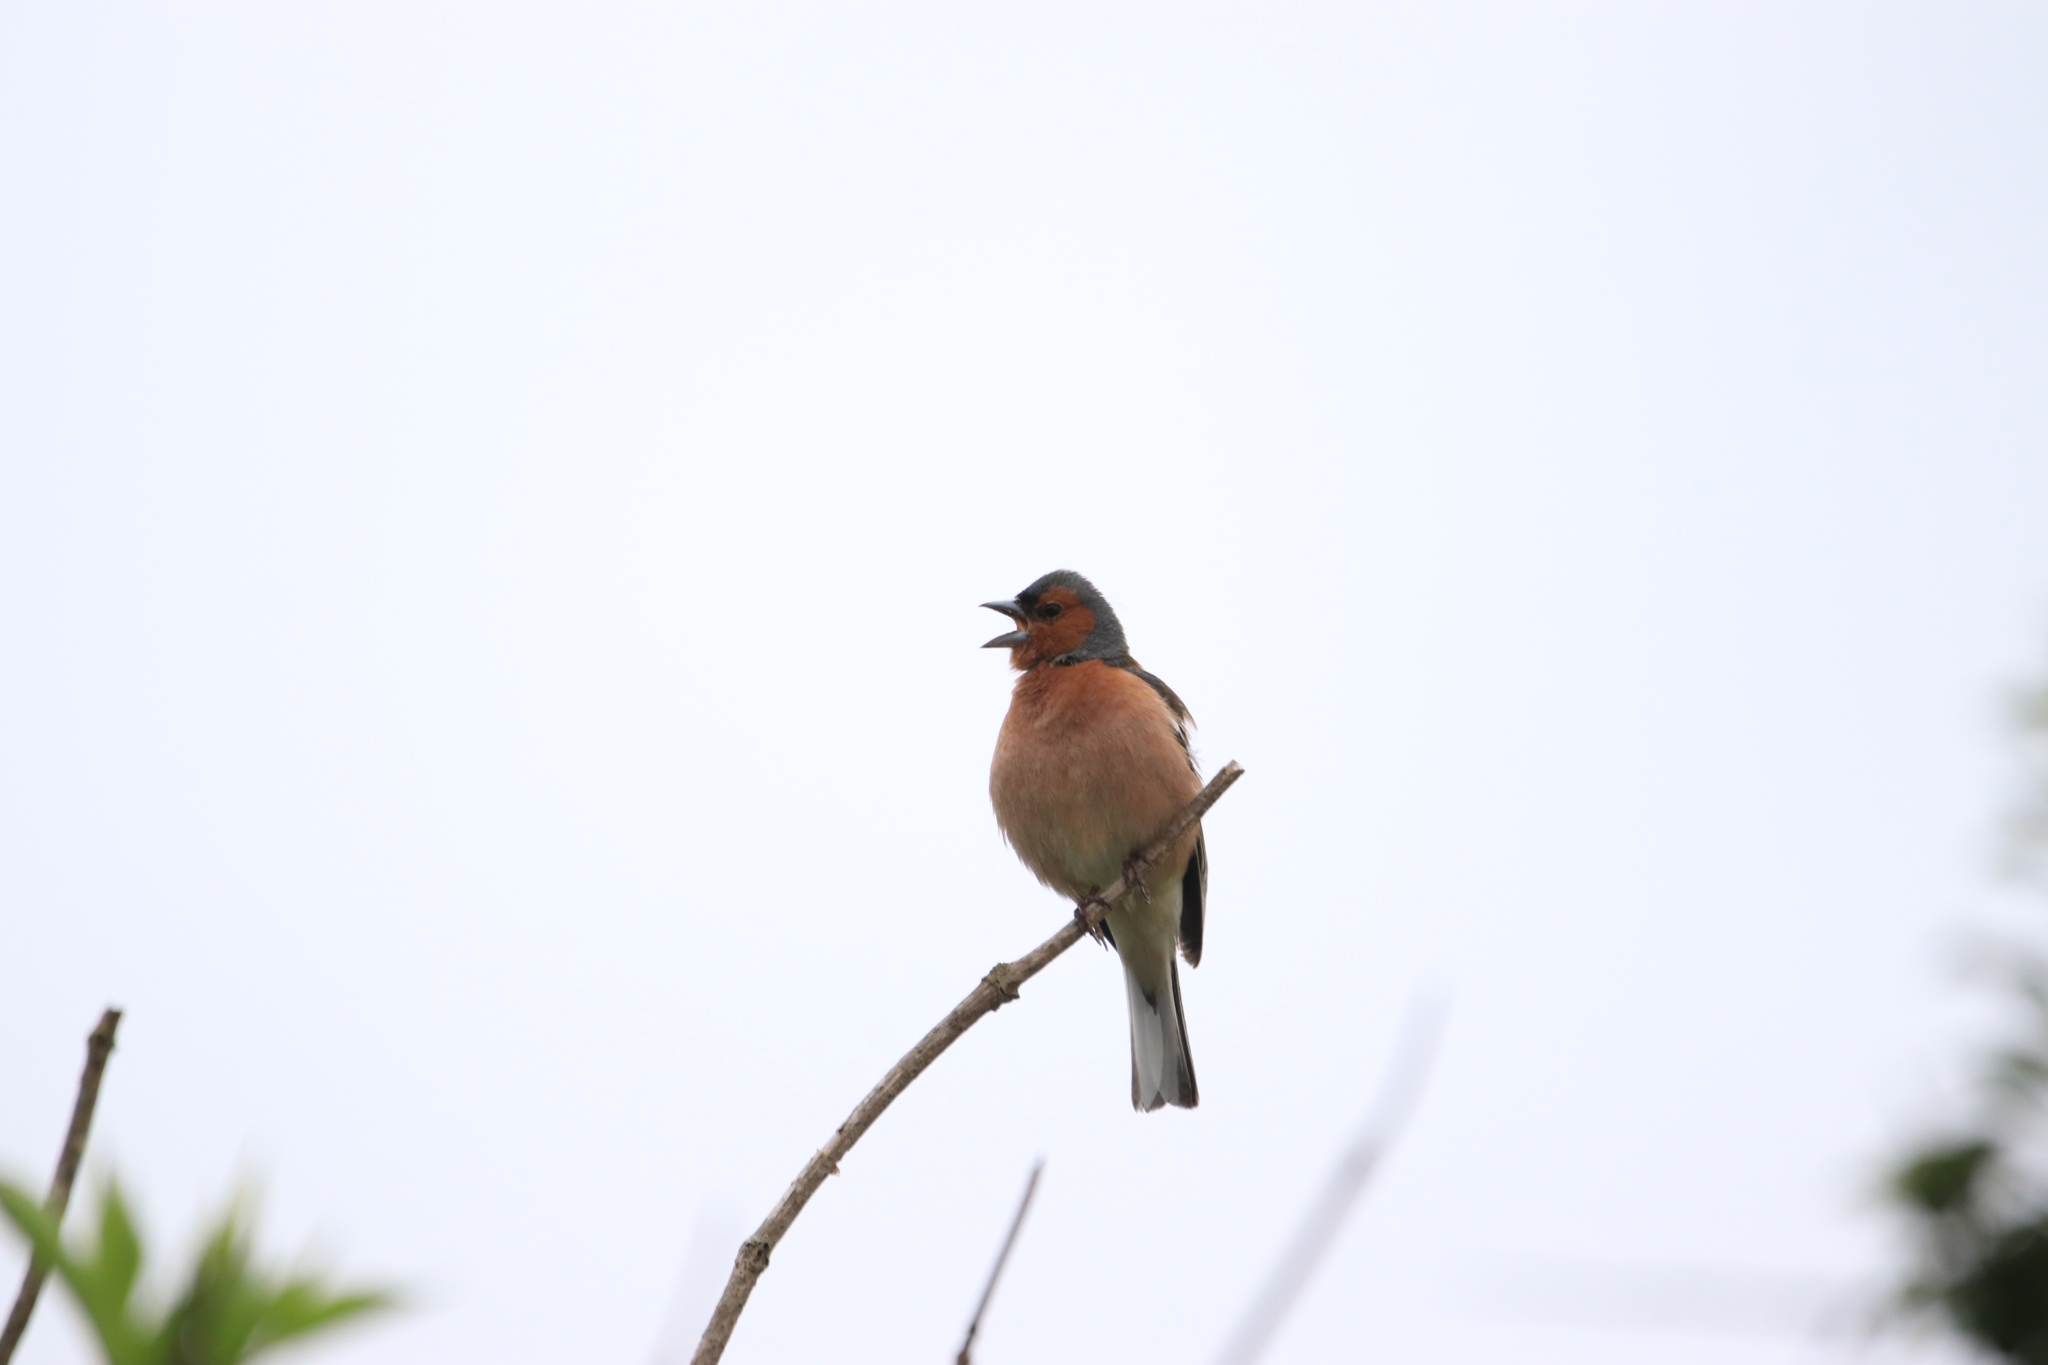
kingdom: Animalia
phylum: Chordata
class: Aves
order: Passeriformes
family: Fringillidae
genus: Fringilla
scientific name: Fringilla coelebs
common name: Common chaffinch
